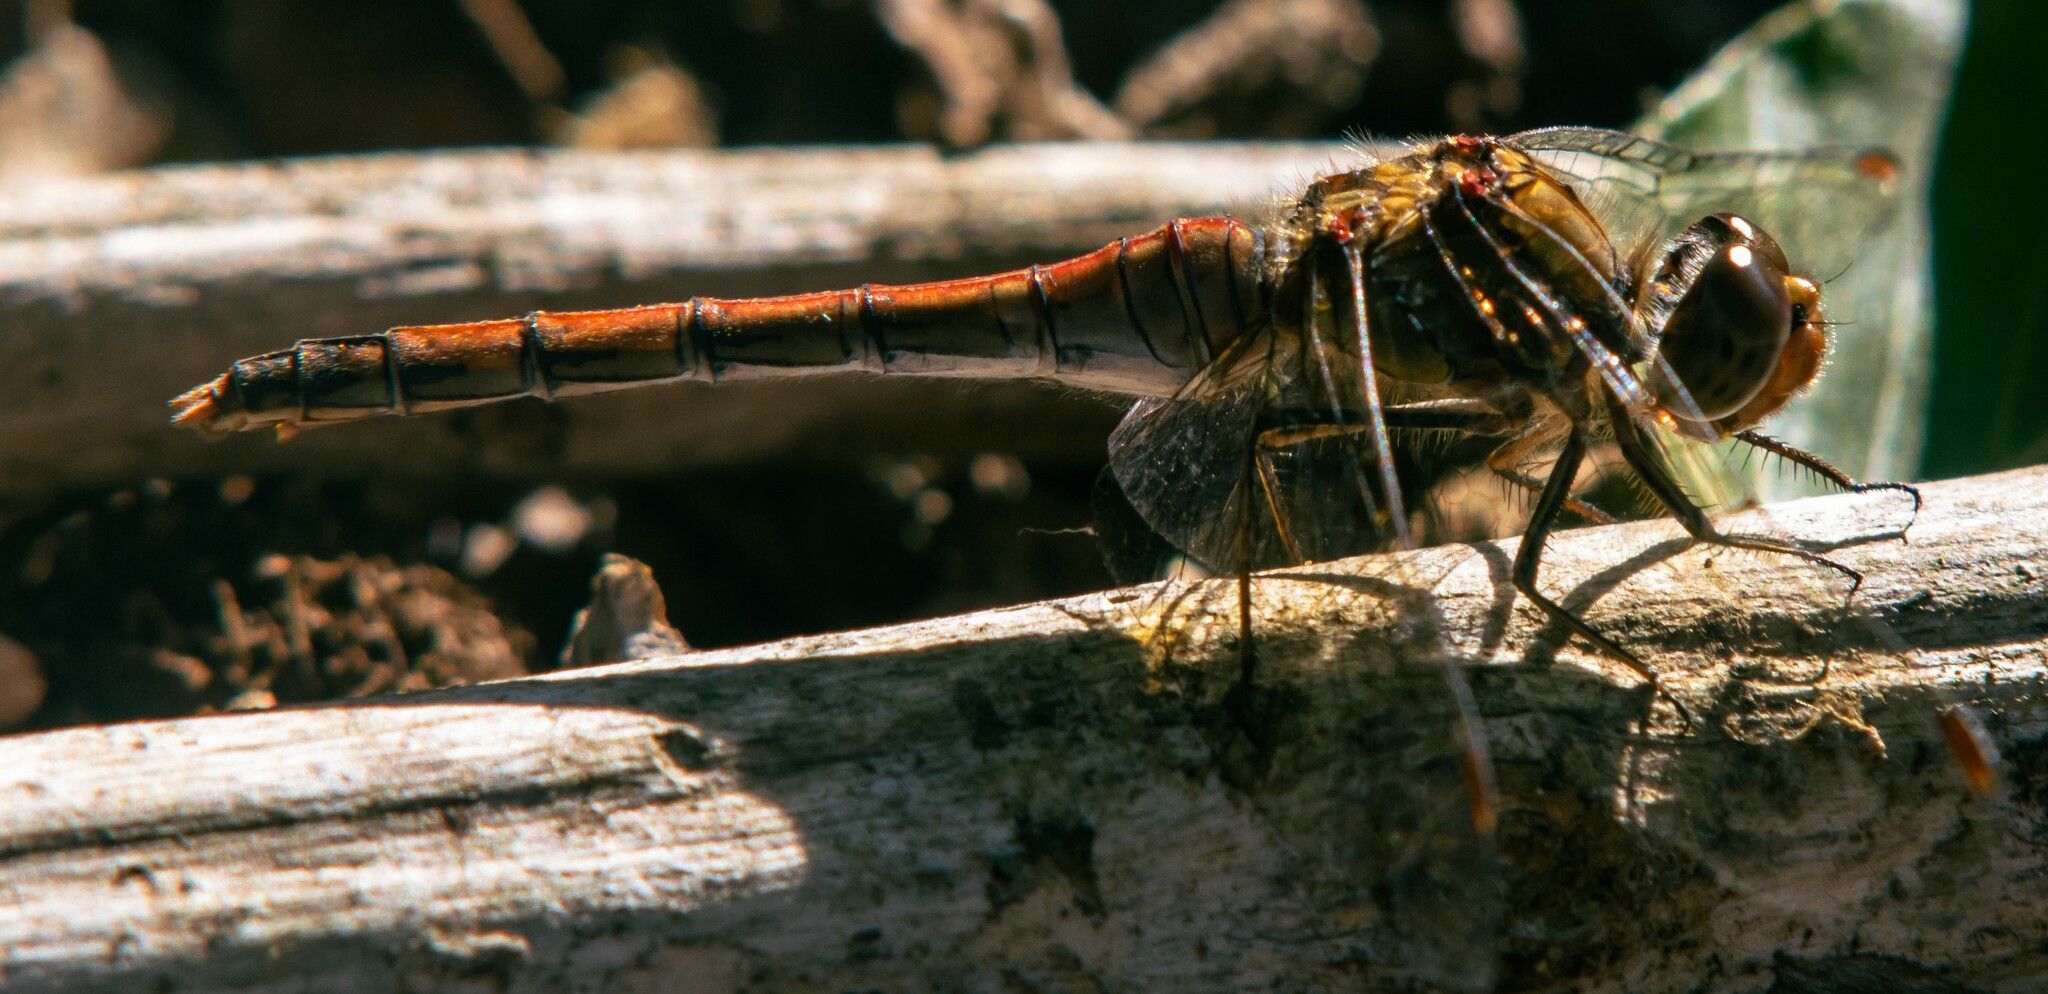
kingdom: Animalia
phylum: Arthropoda
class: Insecta
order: Odonata
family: Libellulidae
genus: Sympetrum
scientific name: Sympetrum striolatum
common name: Common darter
